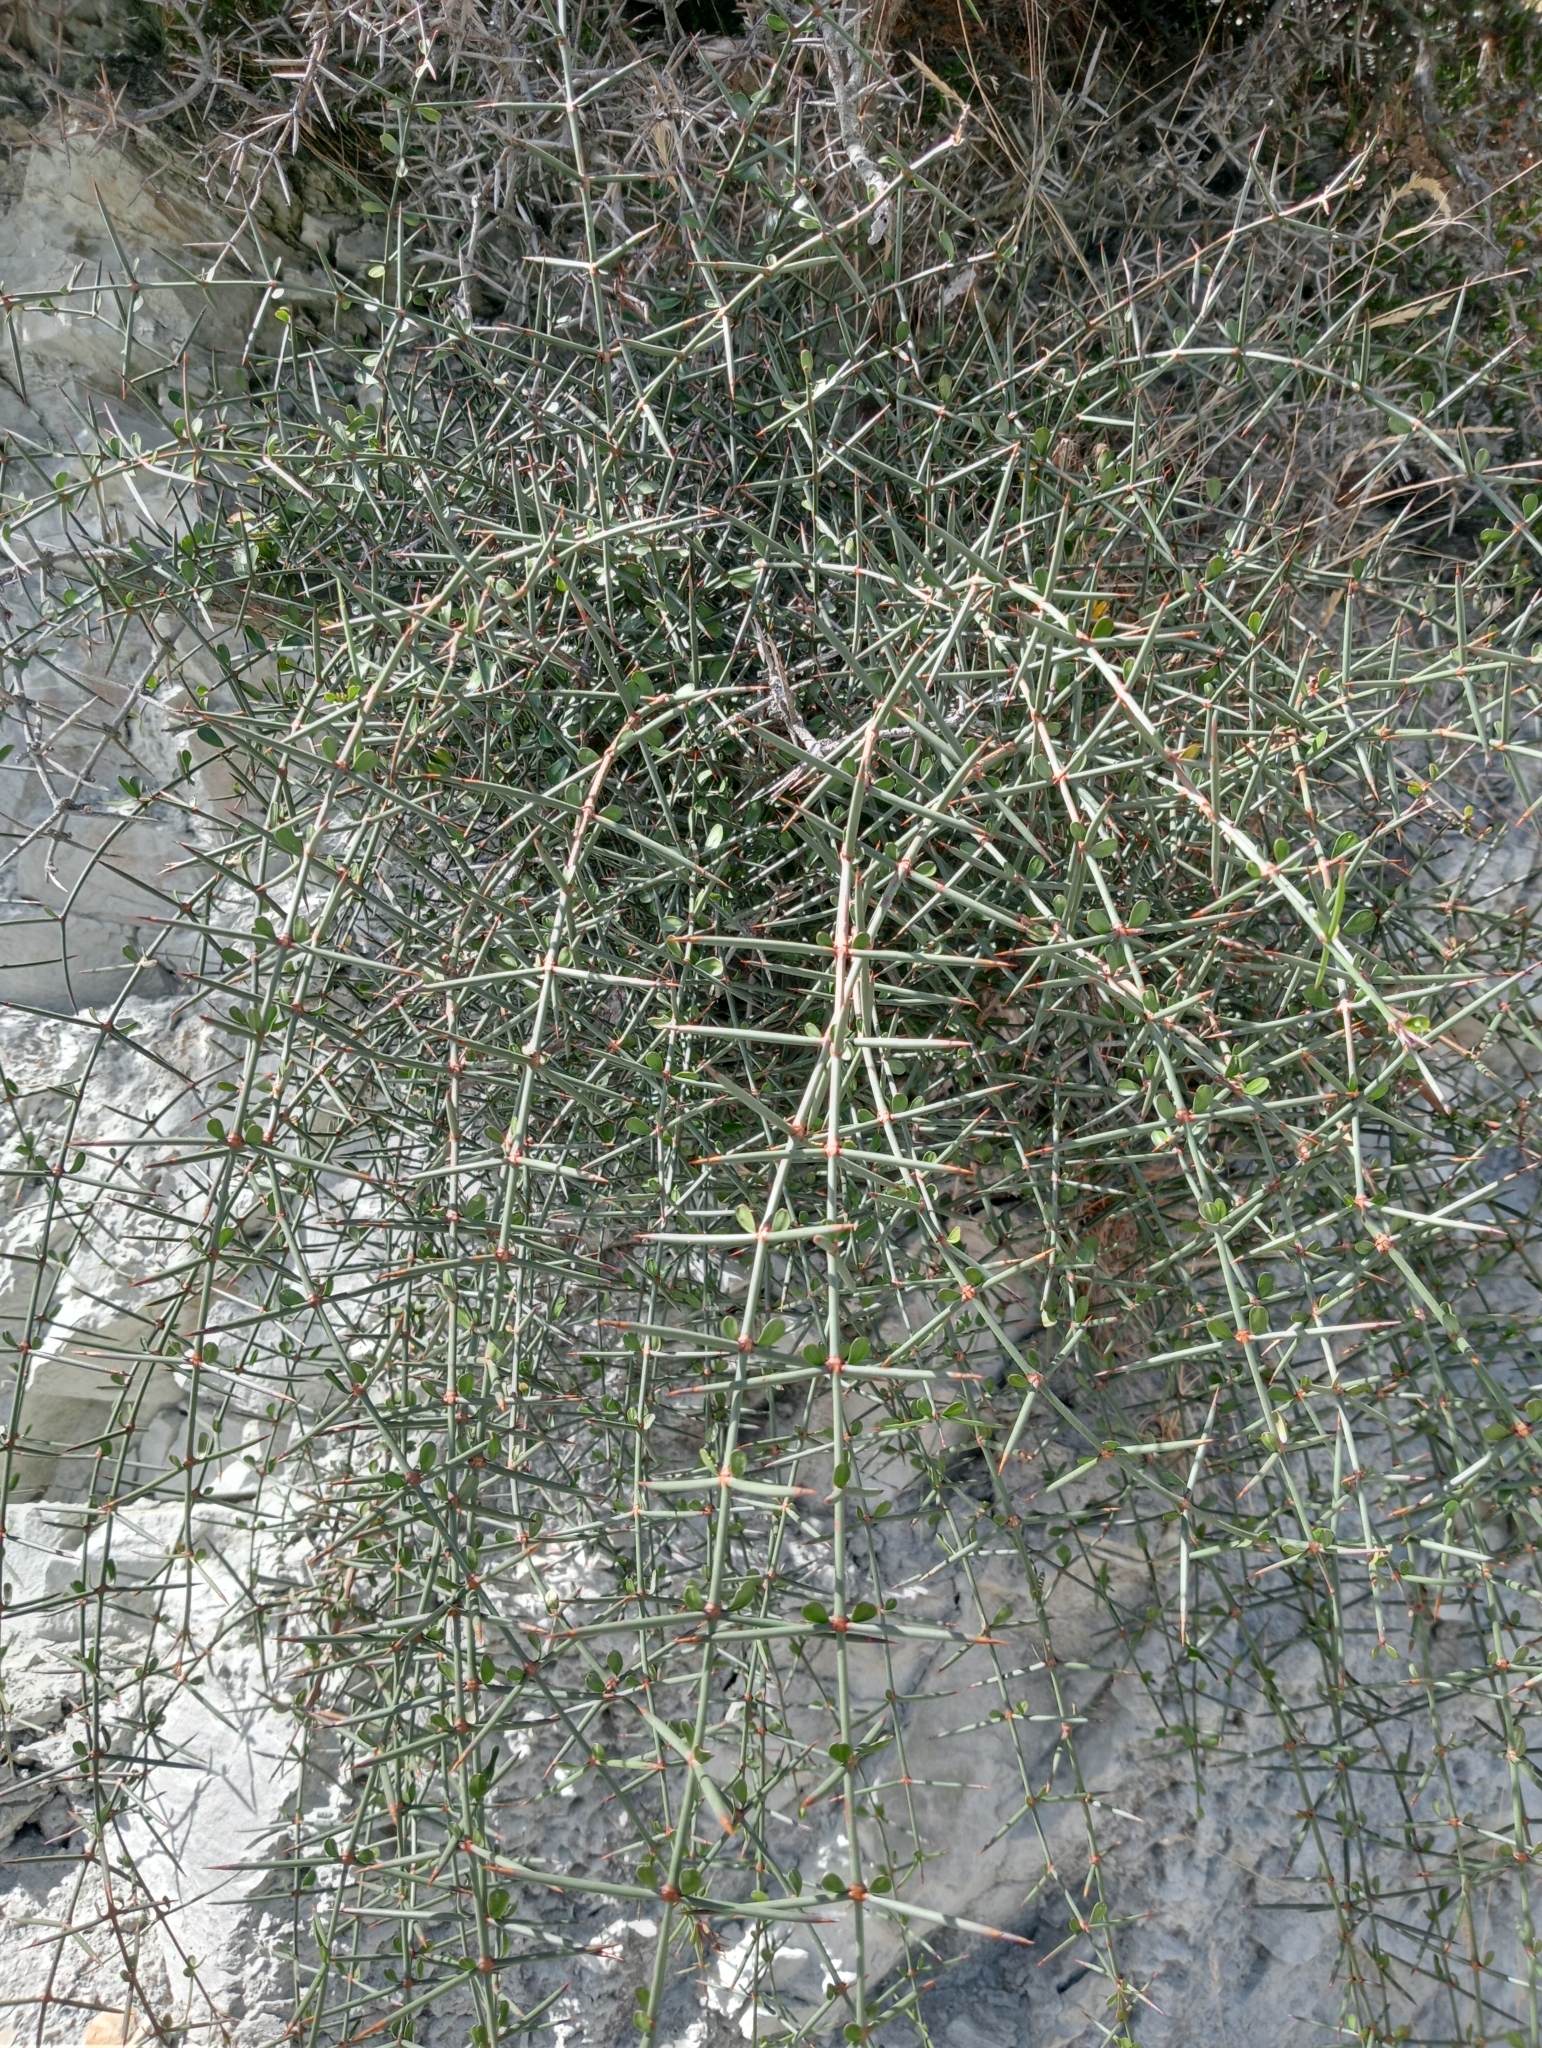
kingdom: Plantae
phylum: Tracheophyta
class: Magnoliopsida
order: Rosales
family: Rhamnaceae
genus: Discaria
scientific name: Discaria toumatou
